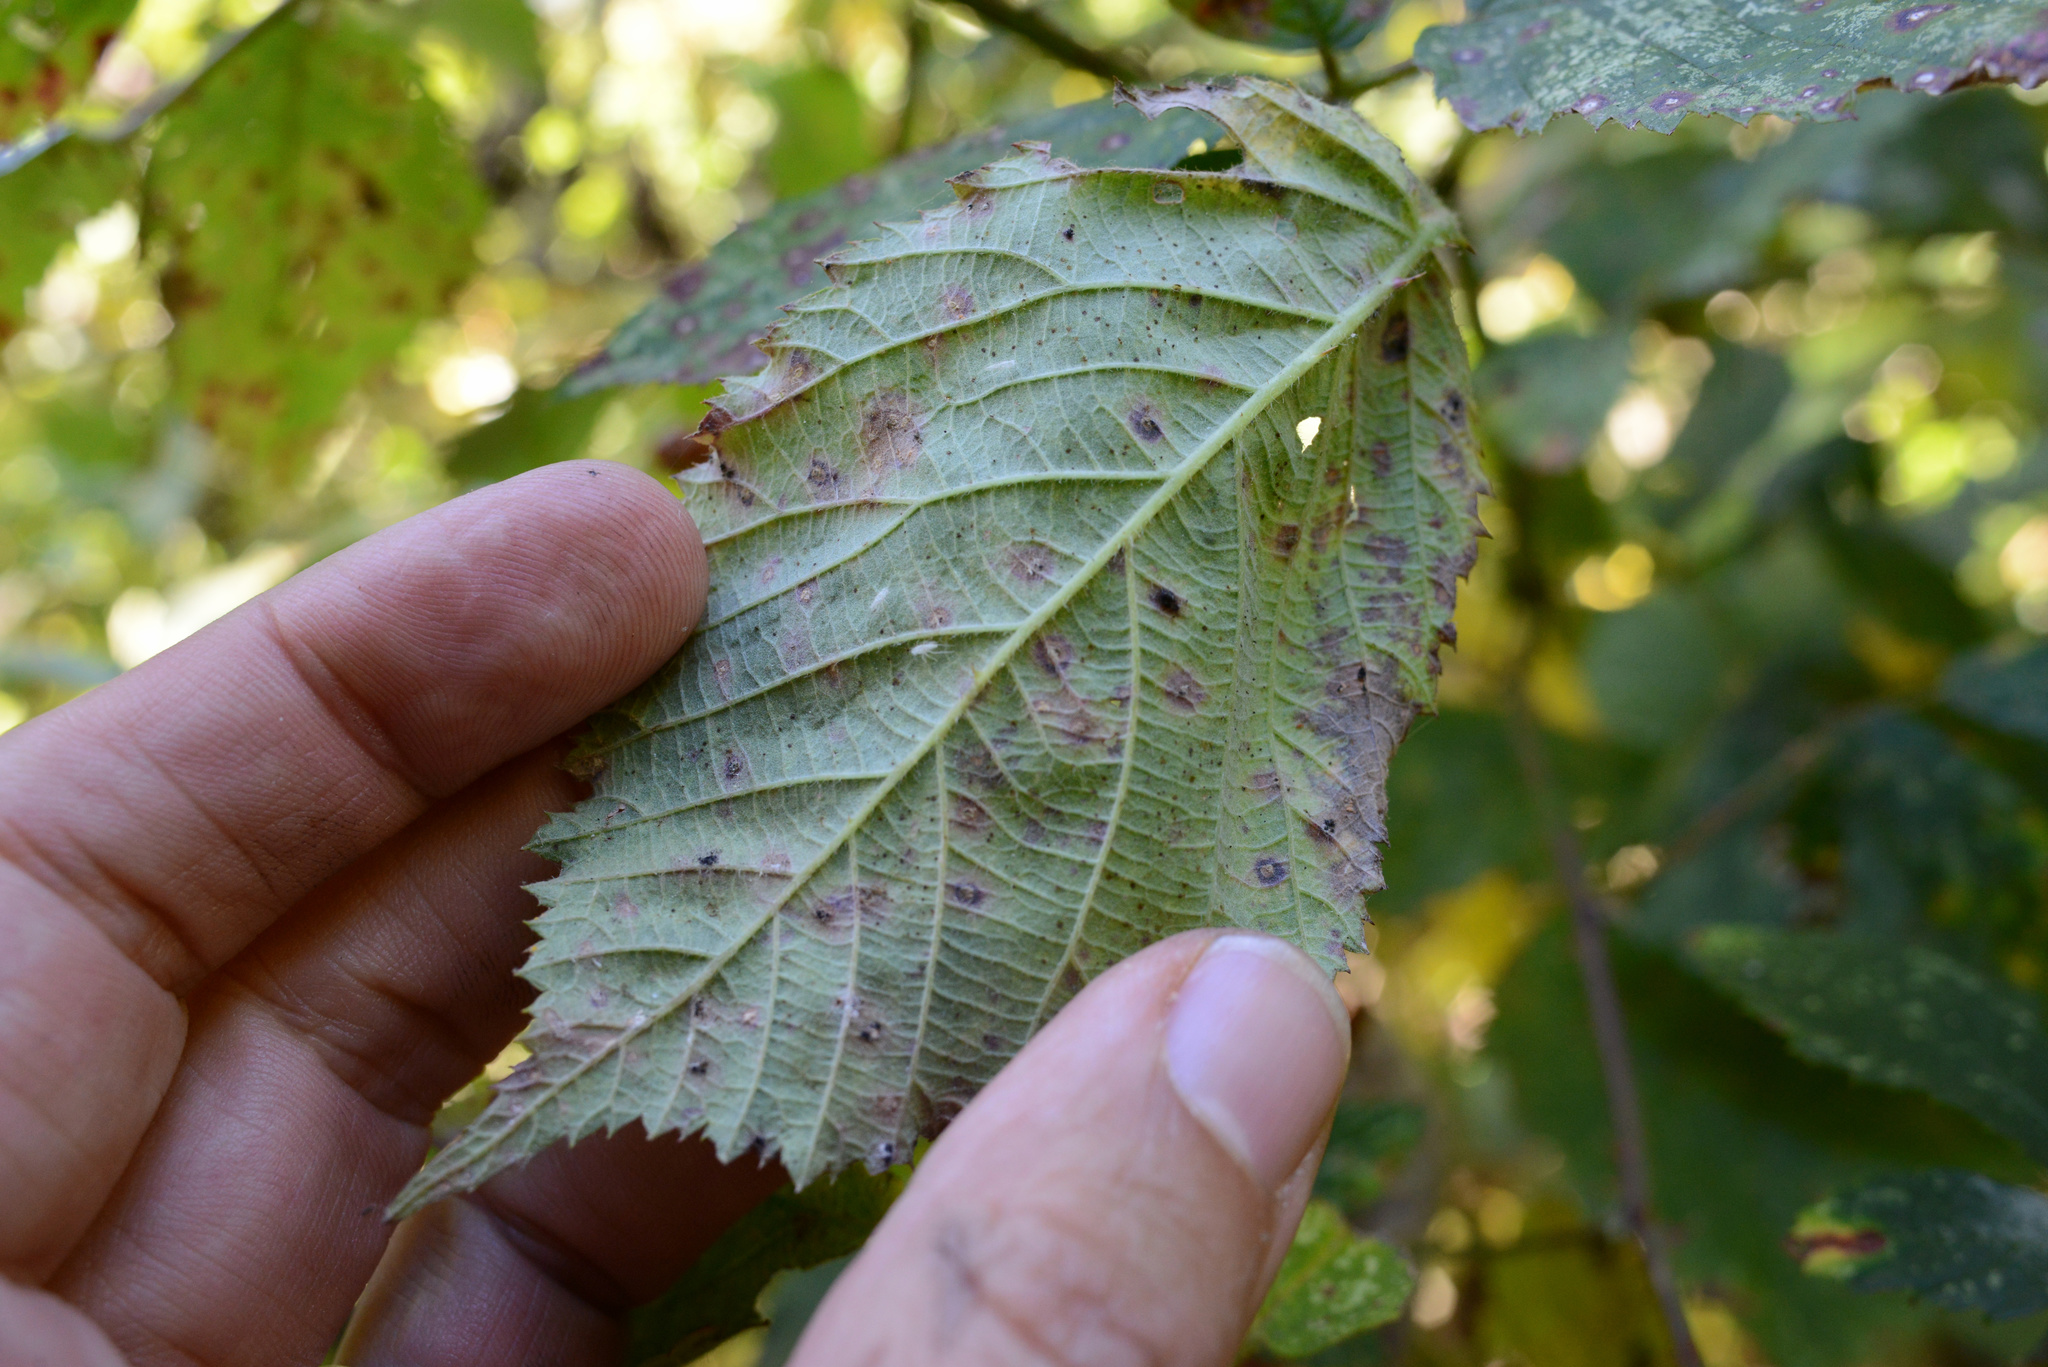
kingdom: Fungi
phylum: Basidiomycota
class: Pucciniomycetes
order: Pucciniales
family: Phragmidiaceae
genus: Phragmidium
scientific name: Phragmidium violaceum
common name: Violet bramble rust
